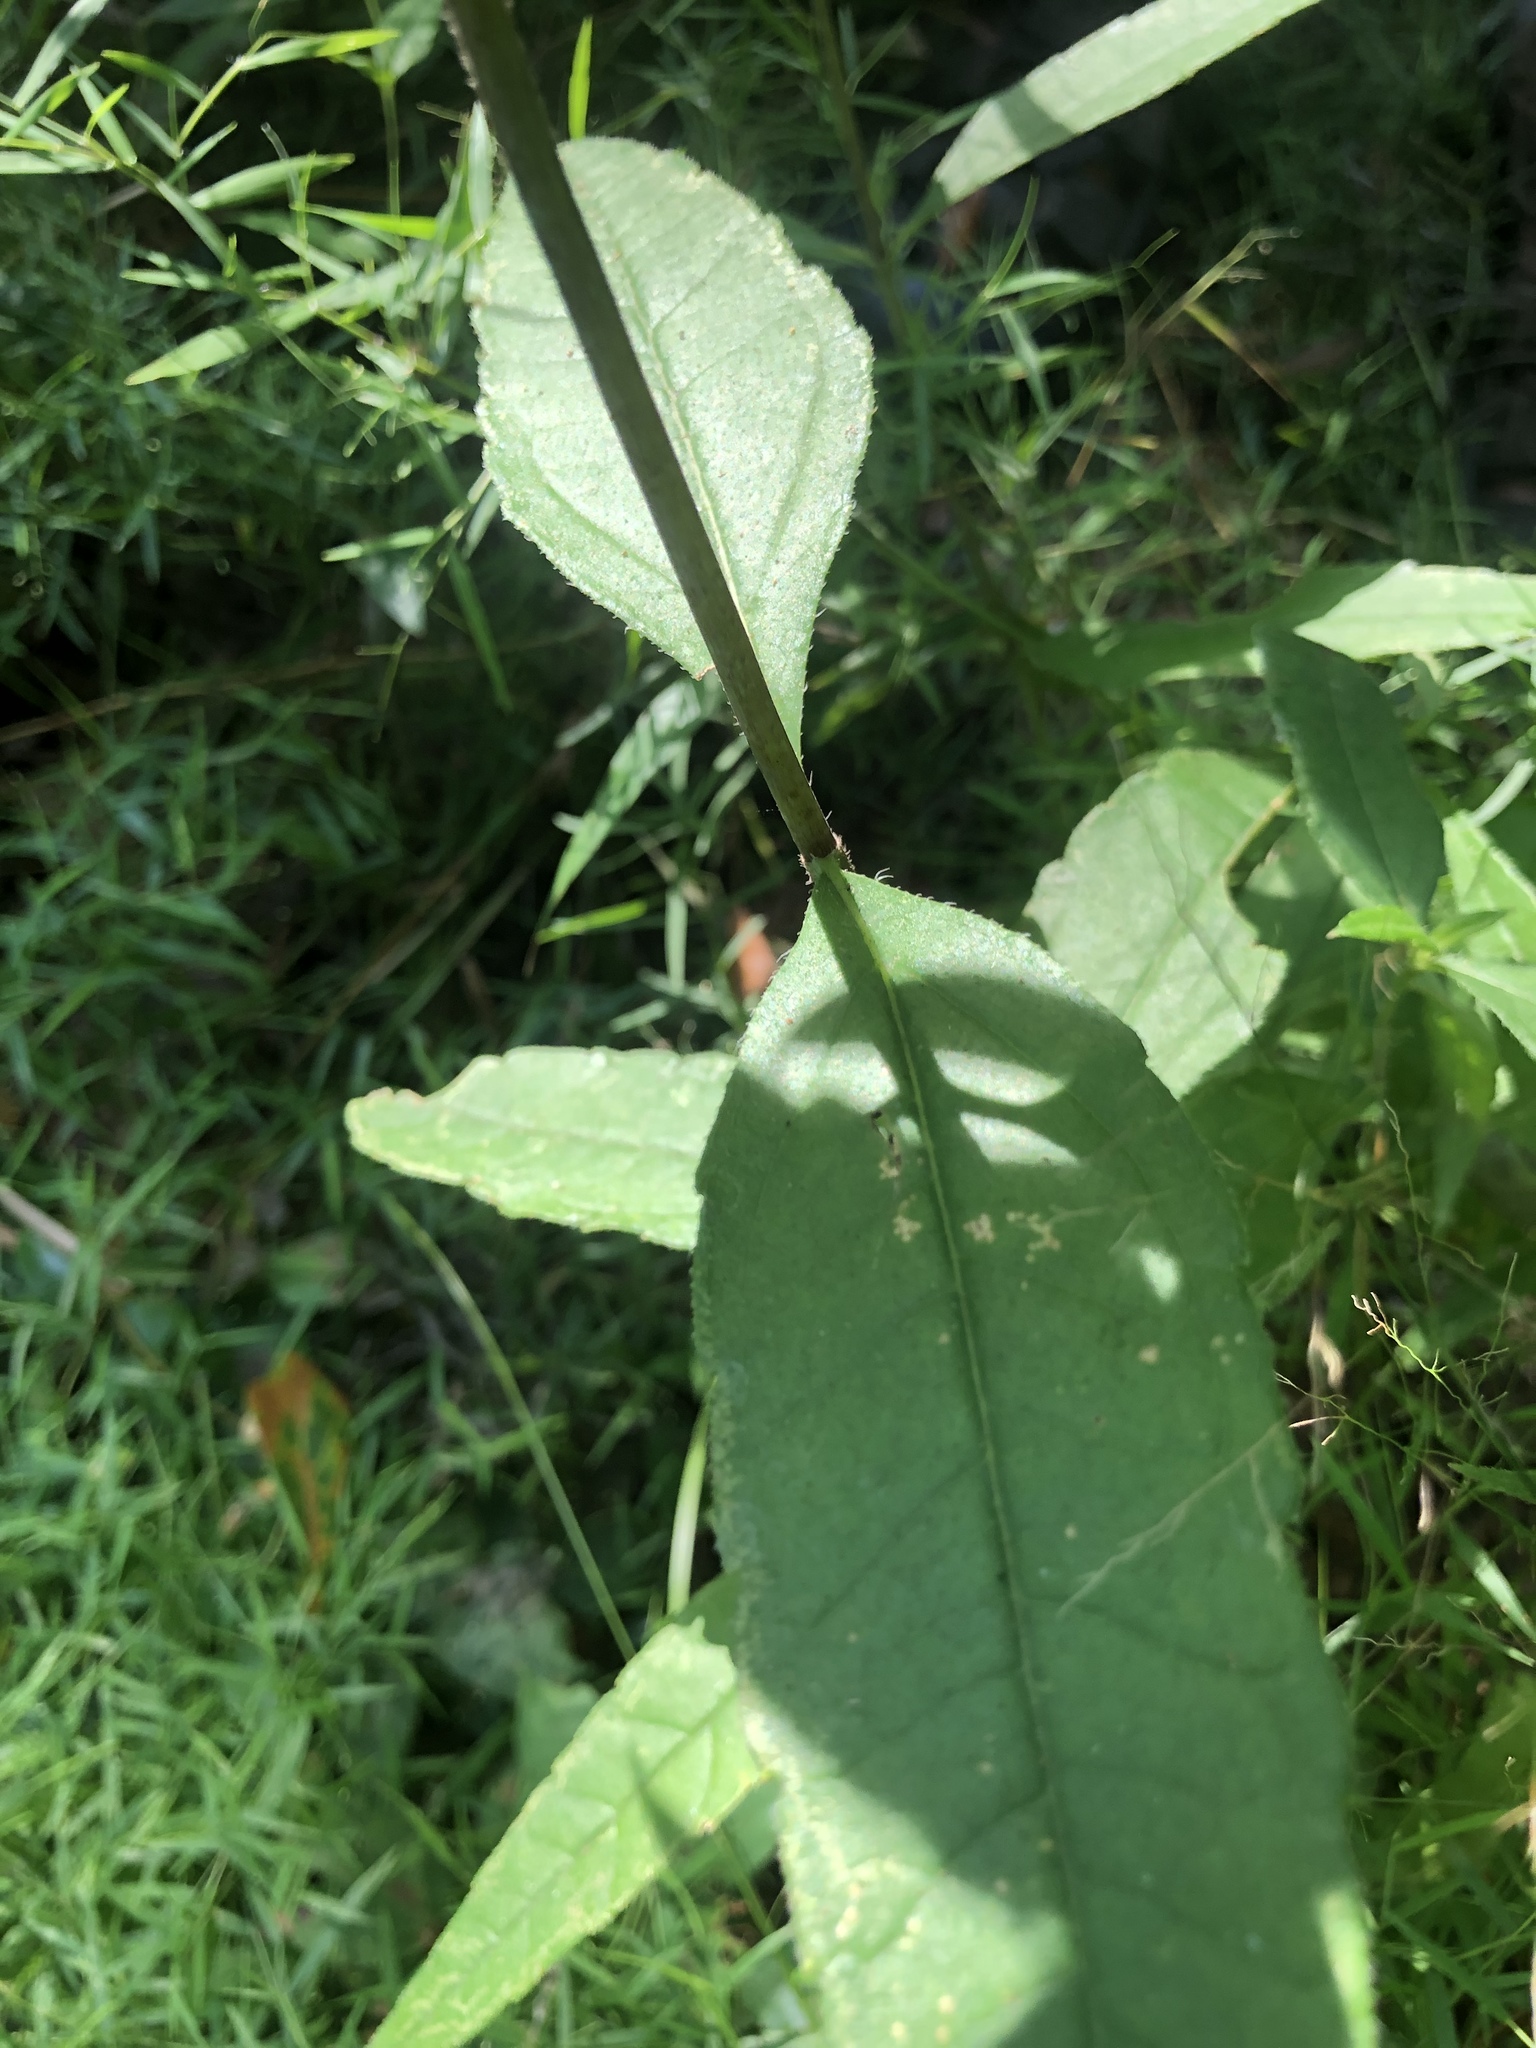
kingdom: Plantae
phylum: Tracheophyta
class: Magnoliopsida
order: Asterales
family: Asteraceae
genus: Helianthus
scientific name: Helianthus hirsutus
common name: Hairy sunflower
